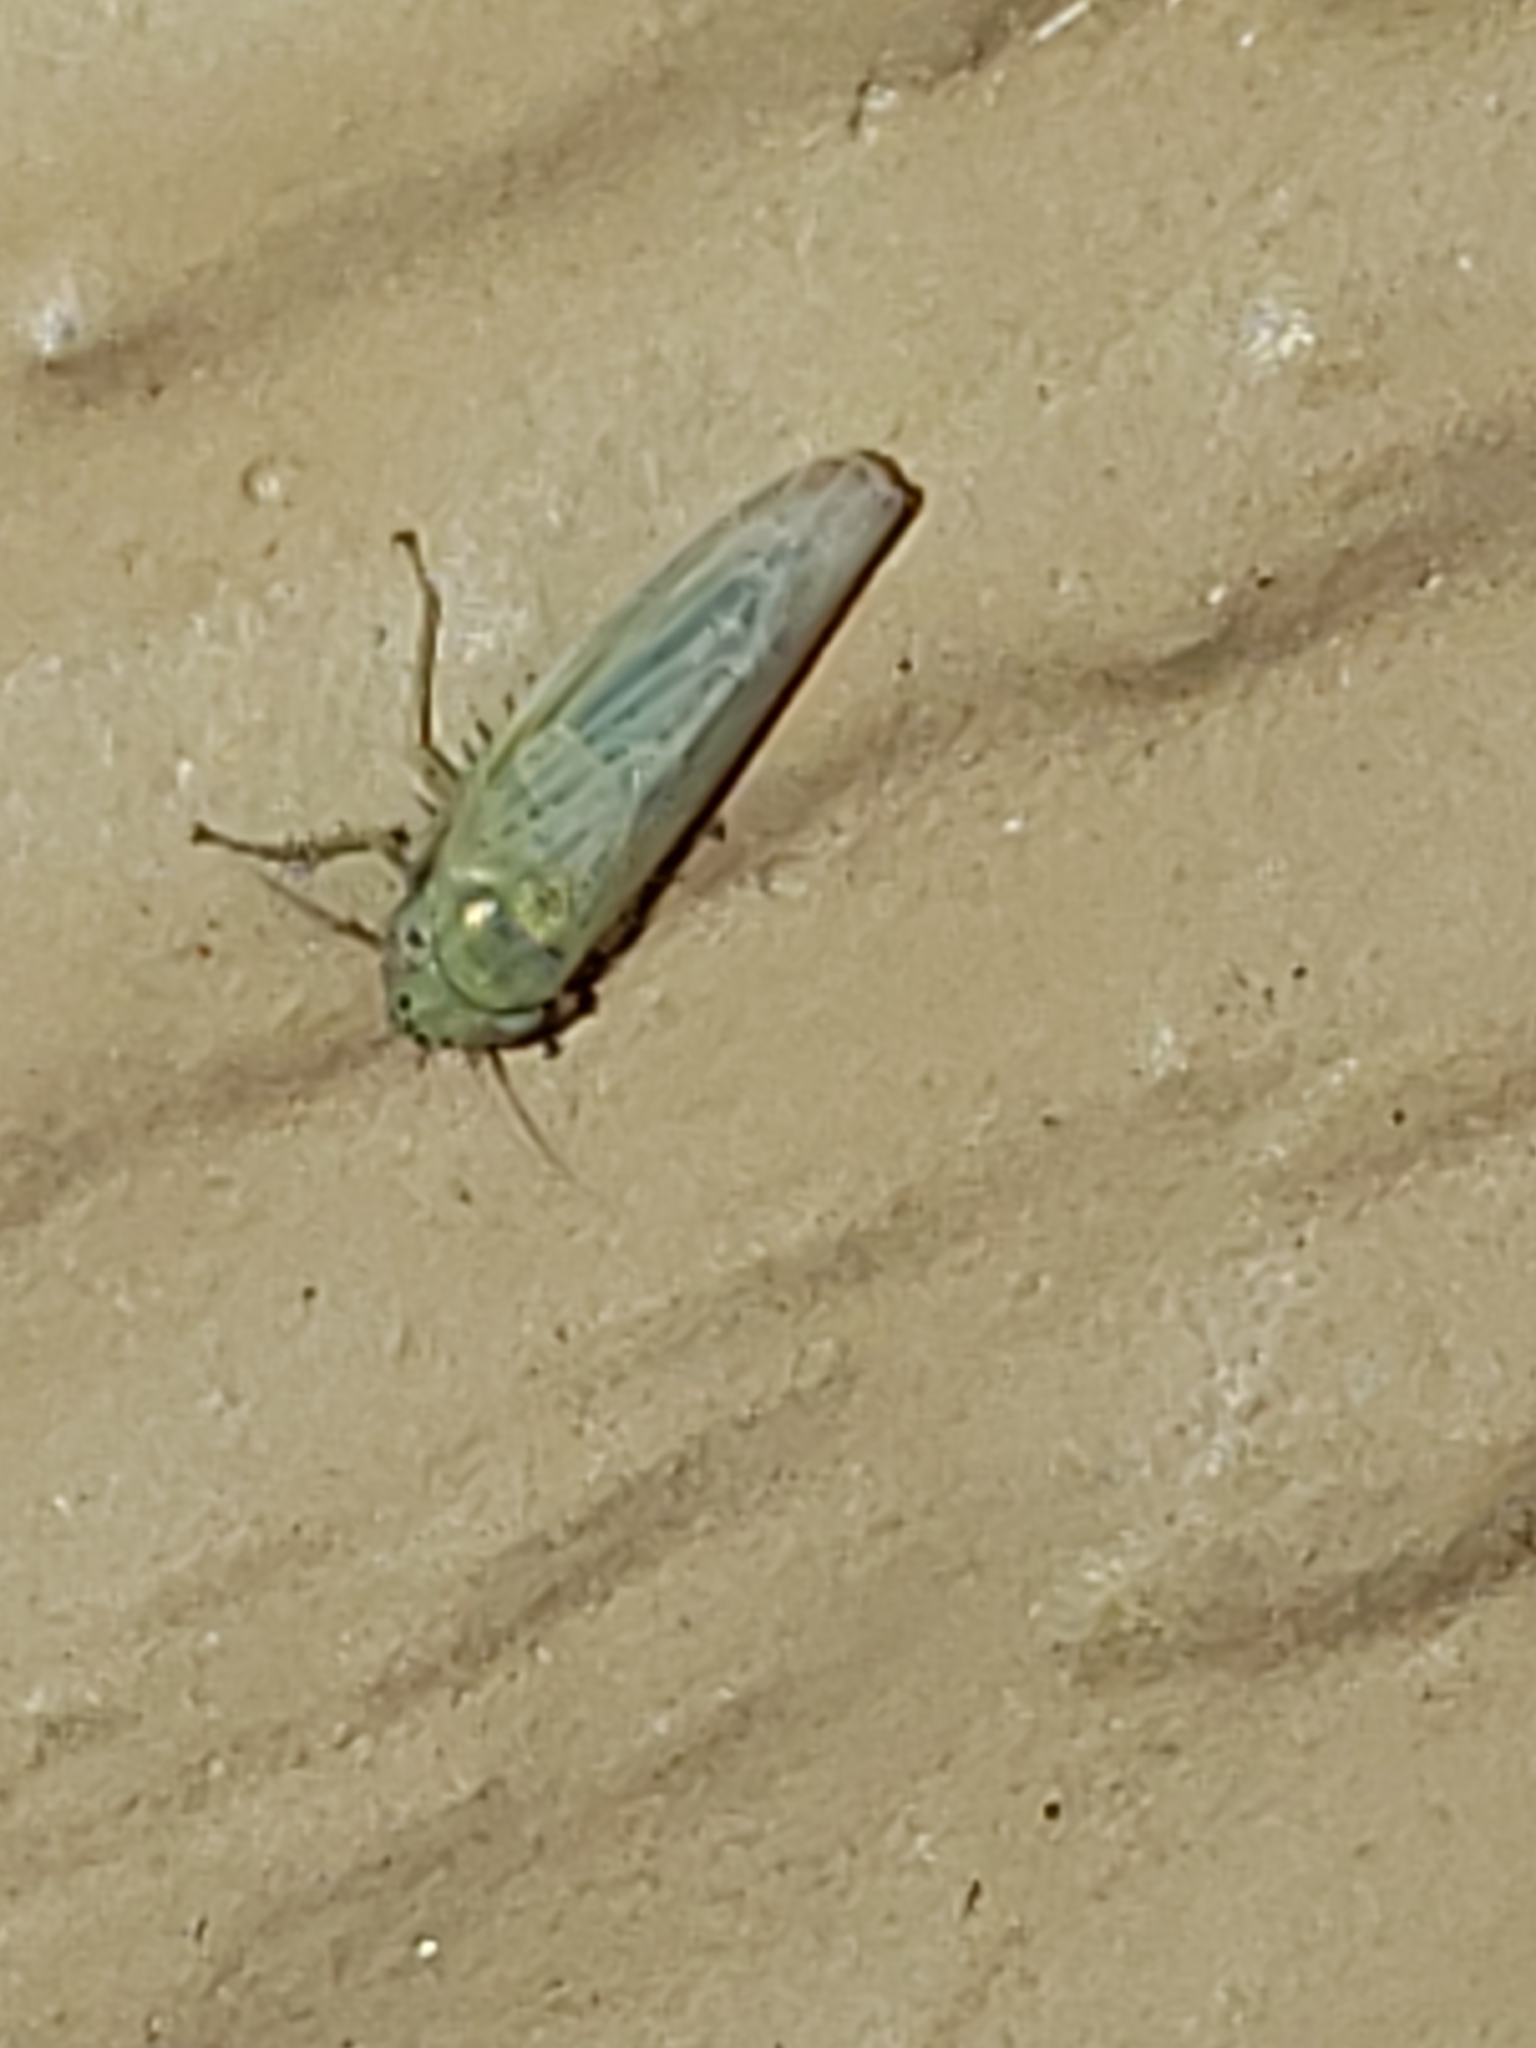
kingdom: Animalia
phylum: Arthropoda
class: Insecta
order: Hemiptera
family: Cicadellidae
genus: Graminella
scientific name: Graminella nigrifrons
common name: Blackfaced leafhopper
